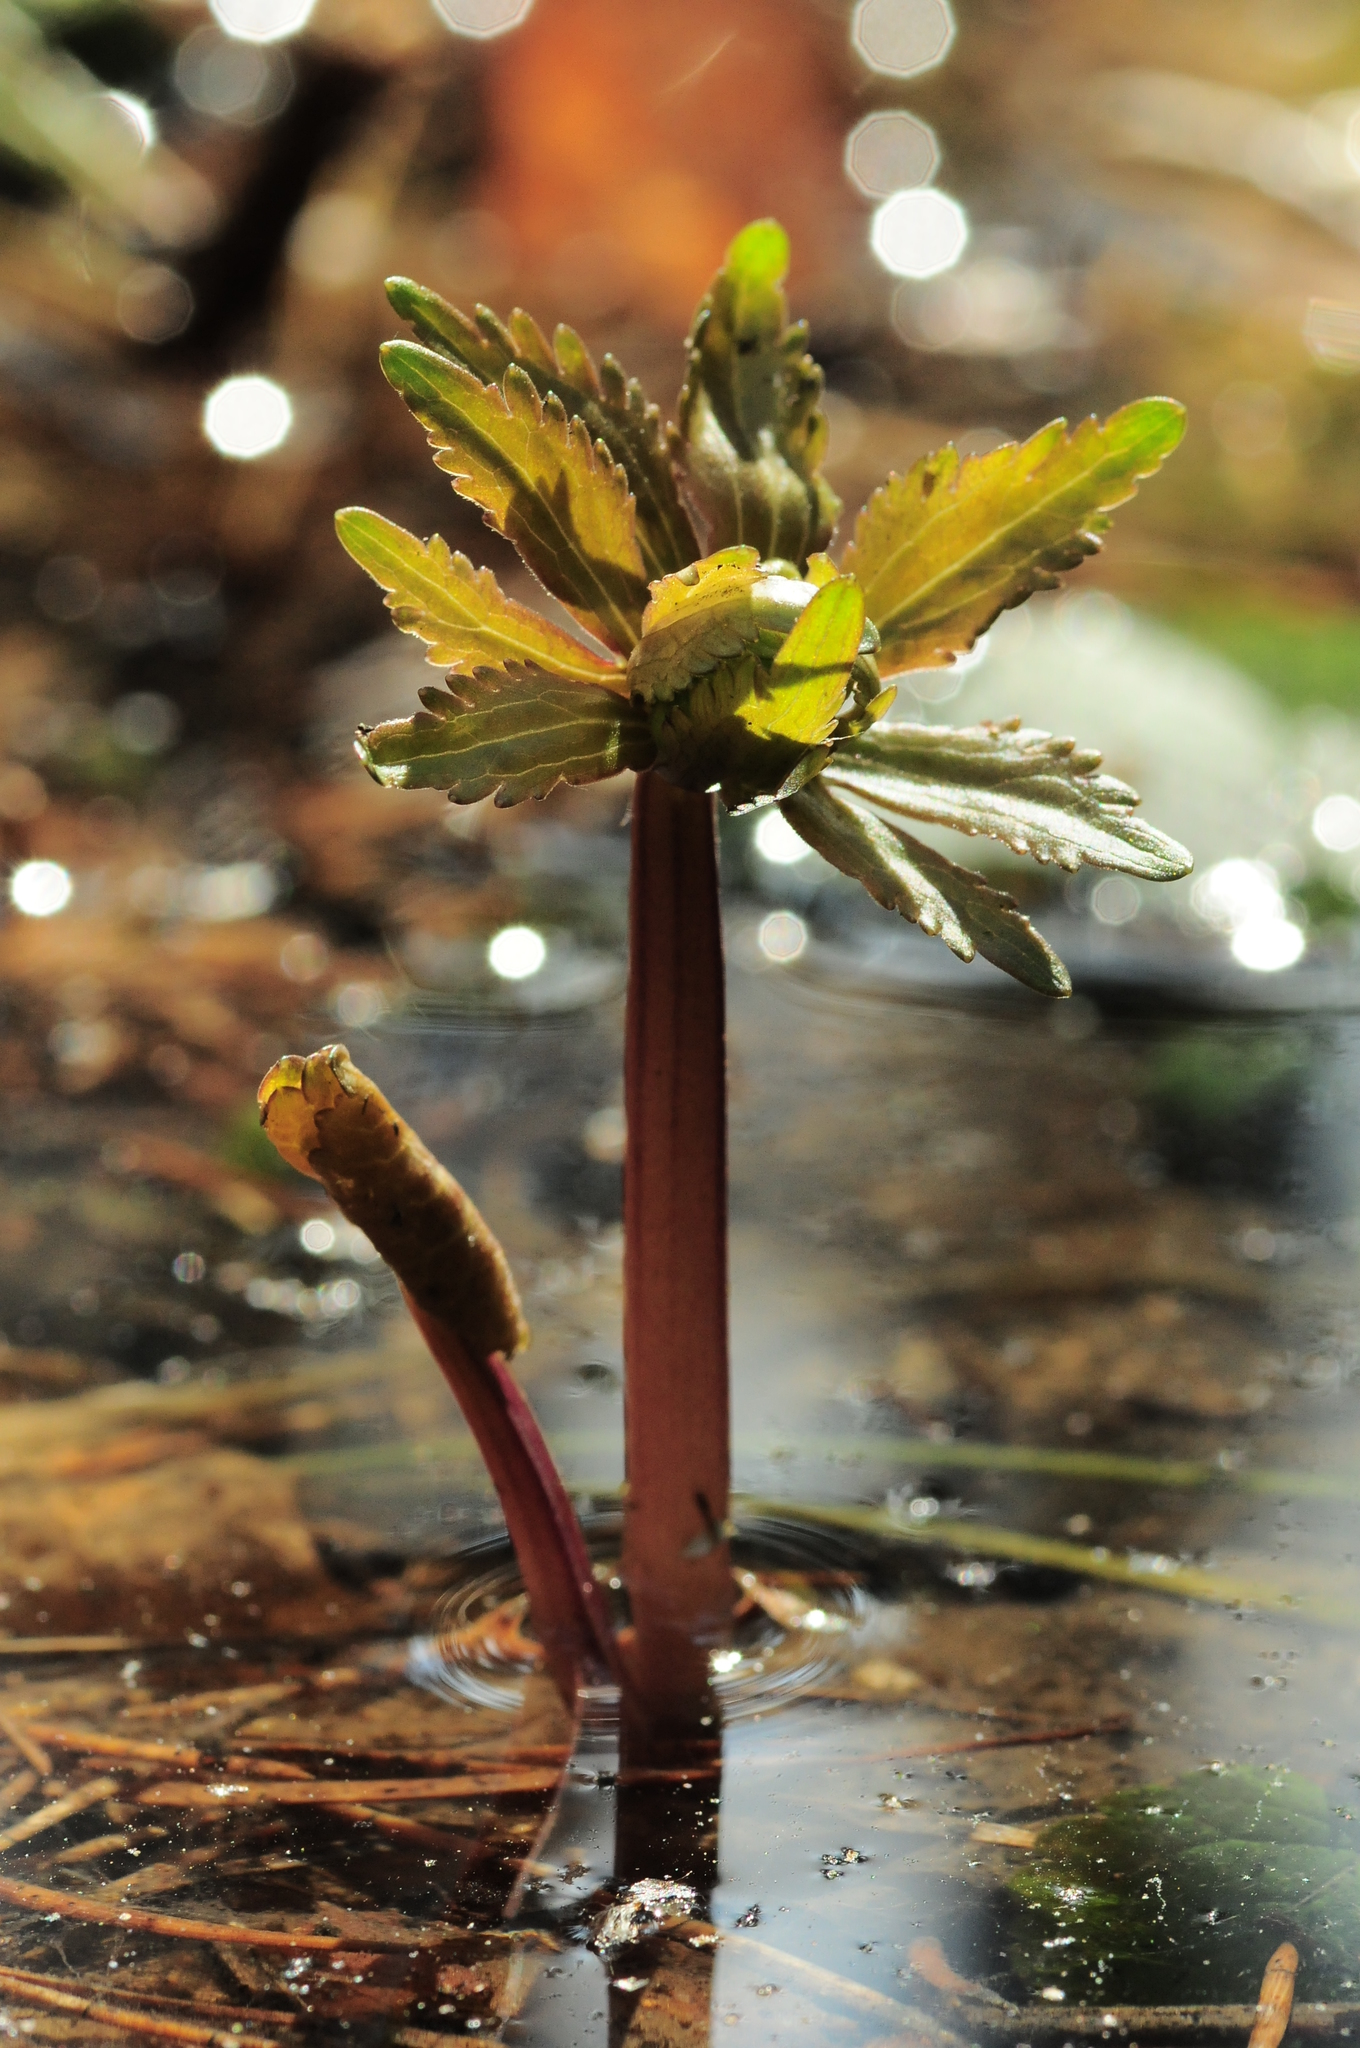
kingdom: Plantae
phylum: Tracheophyta
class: Magnoliopsida
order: Ranunculales
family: Ranunculaceae
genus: Ranunculus
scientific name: Ranunculus cassubicus
